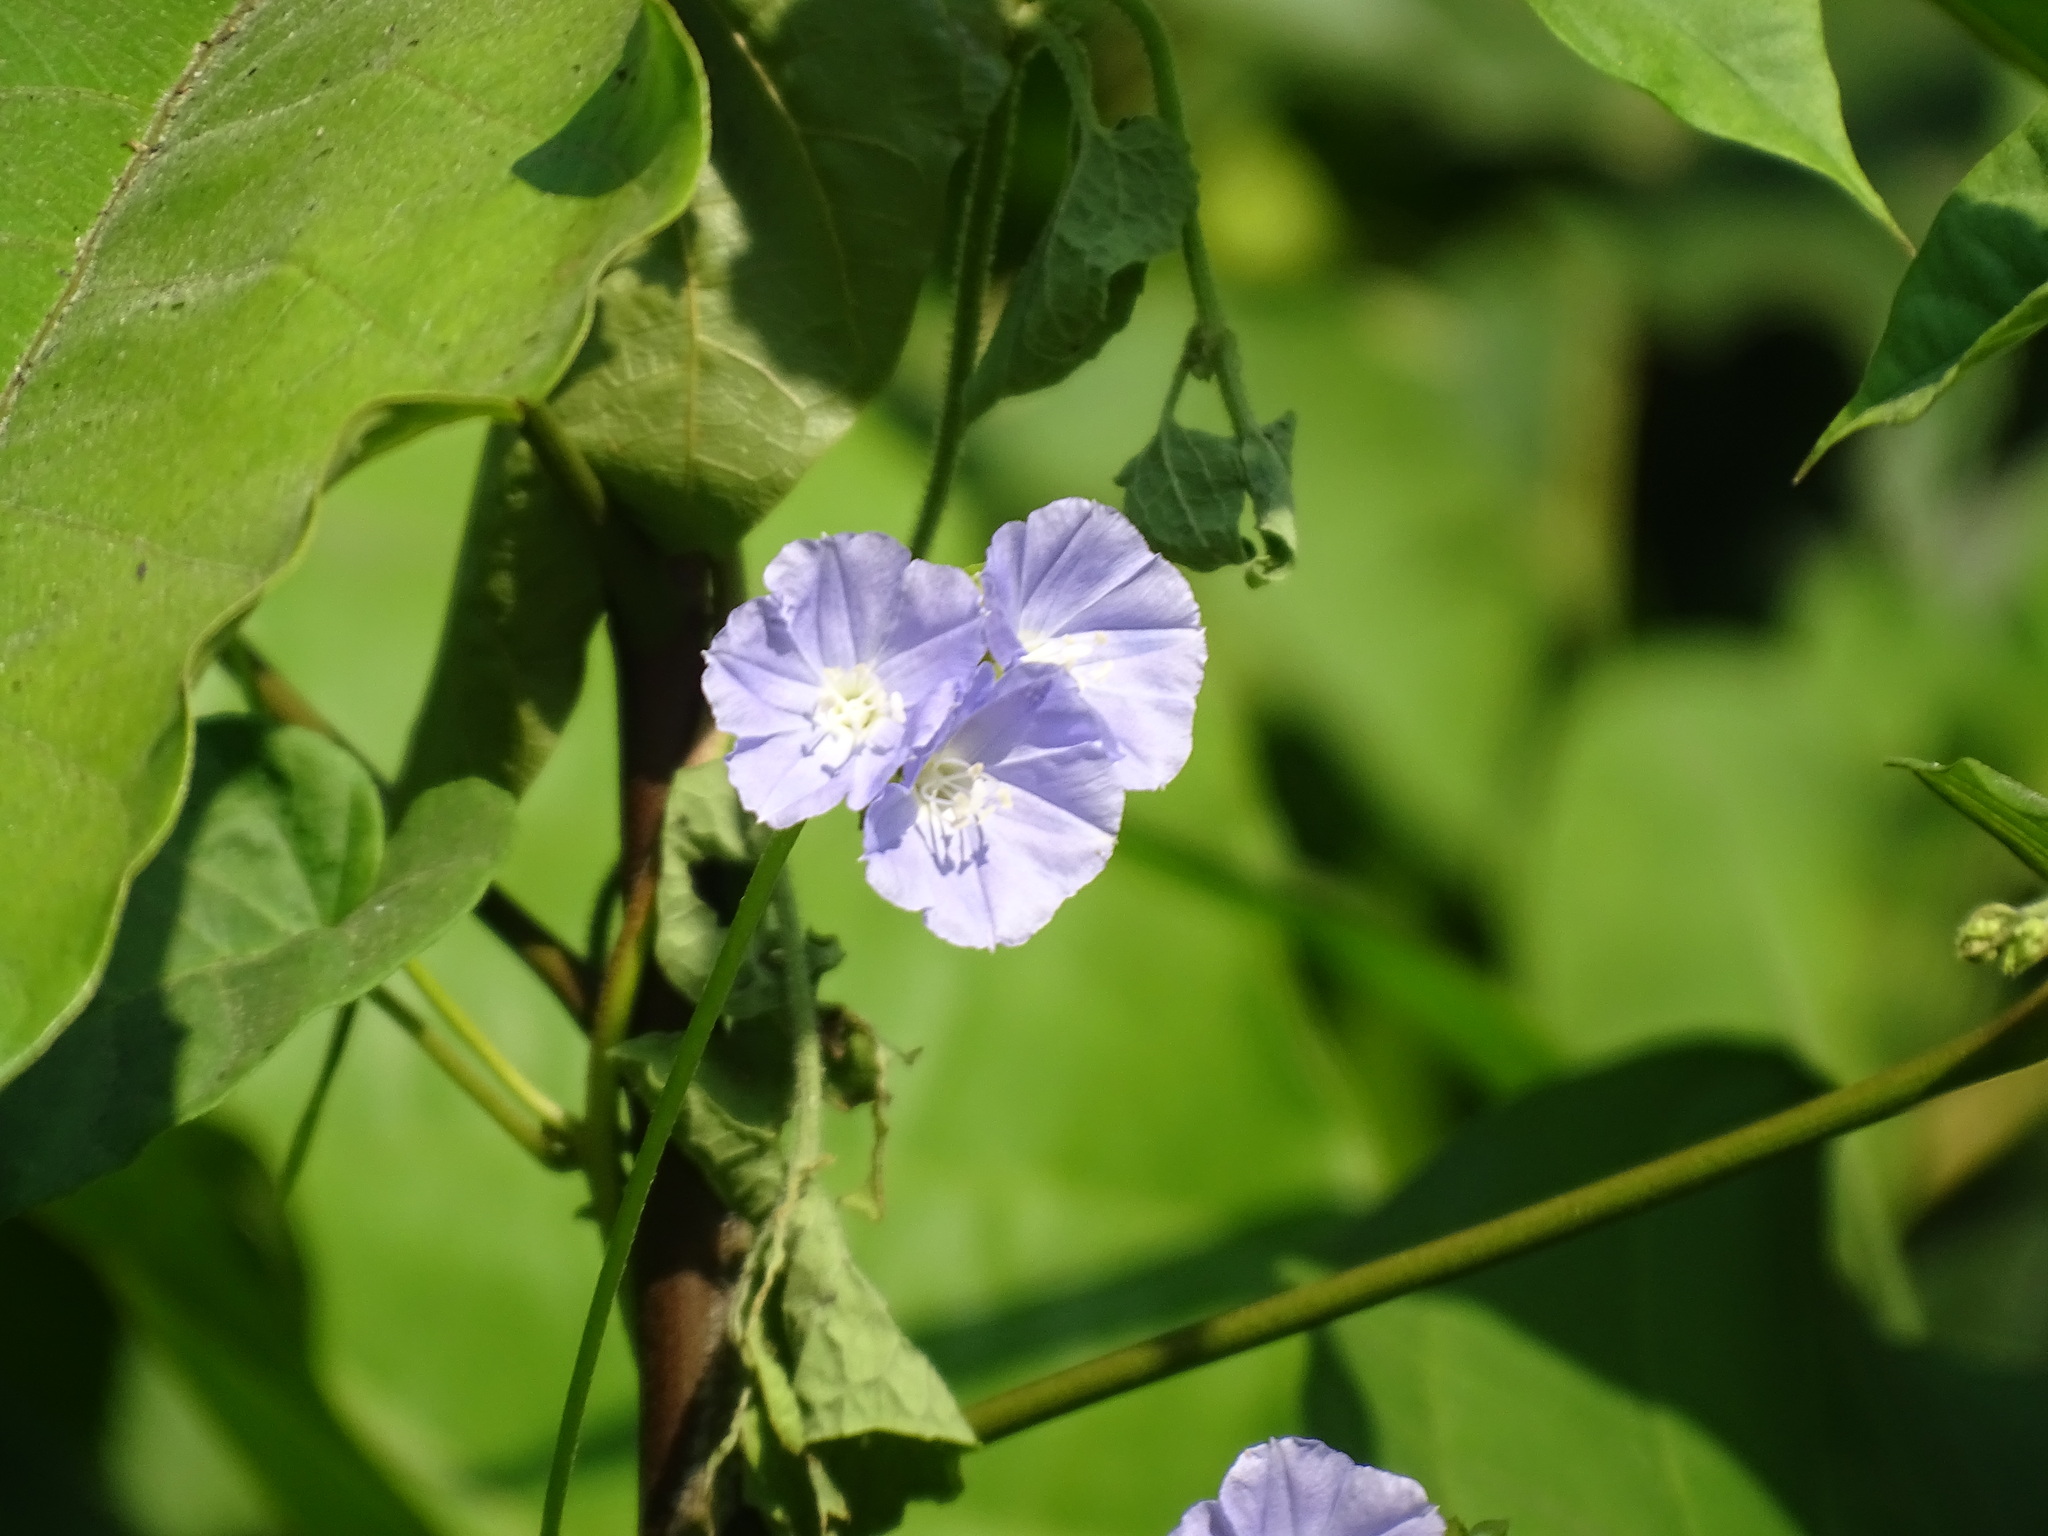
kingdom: Plantae
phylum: Tracheophyta
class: Magnoliopsida
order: Solanales
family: Convolvulaceae
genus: Jacquemontia
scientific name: Jacquemontia oaxacana
